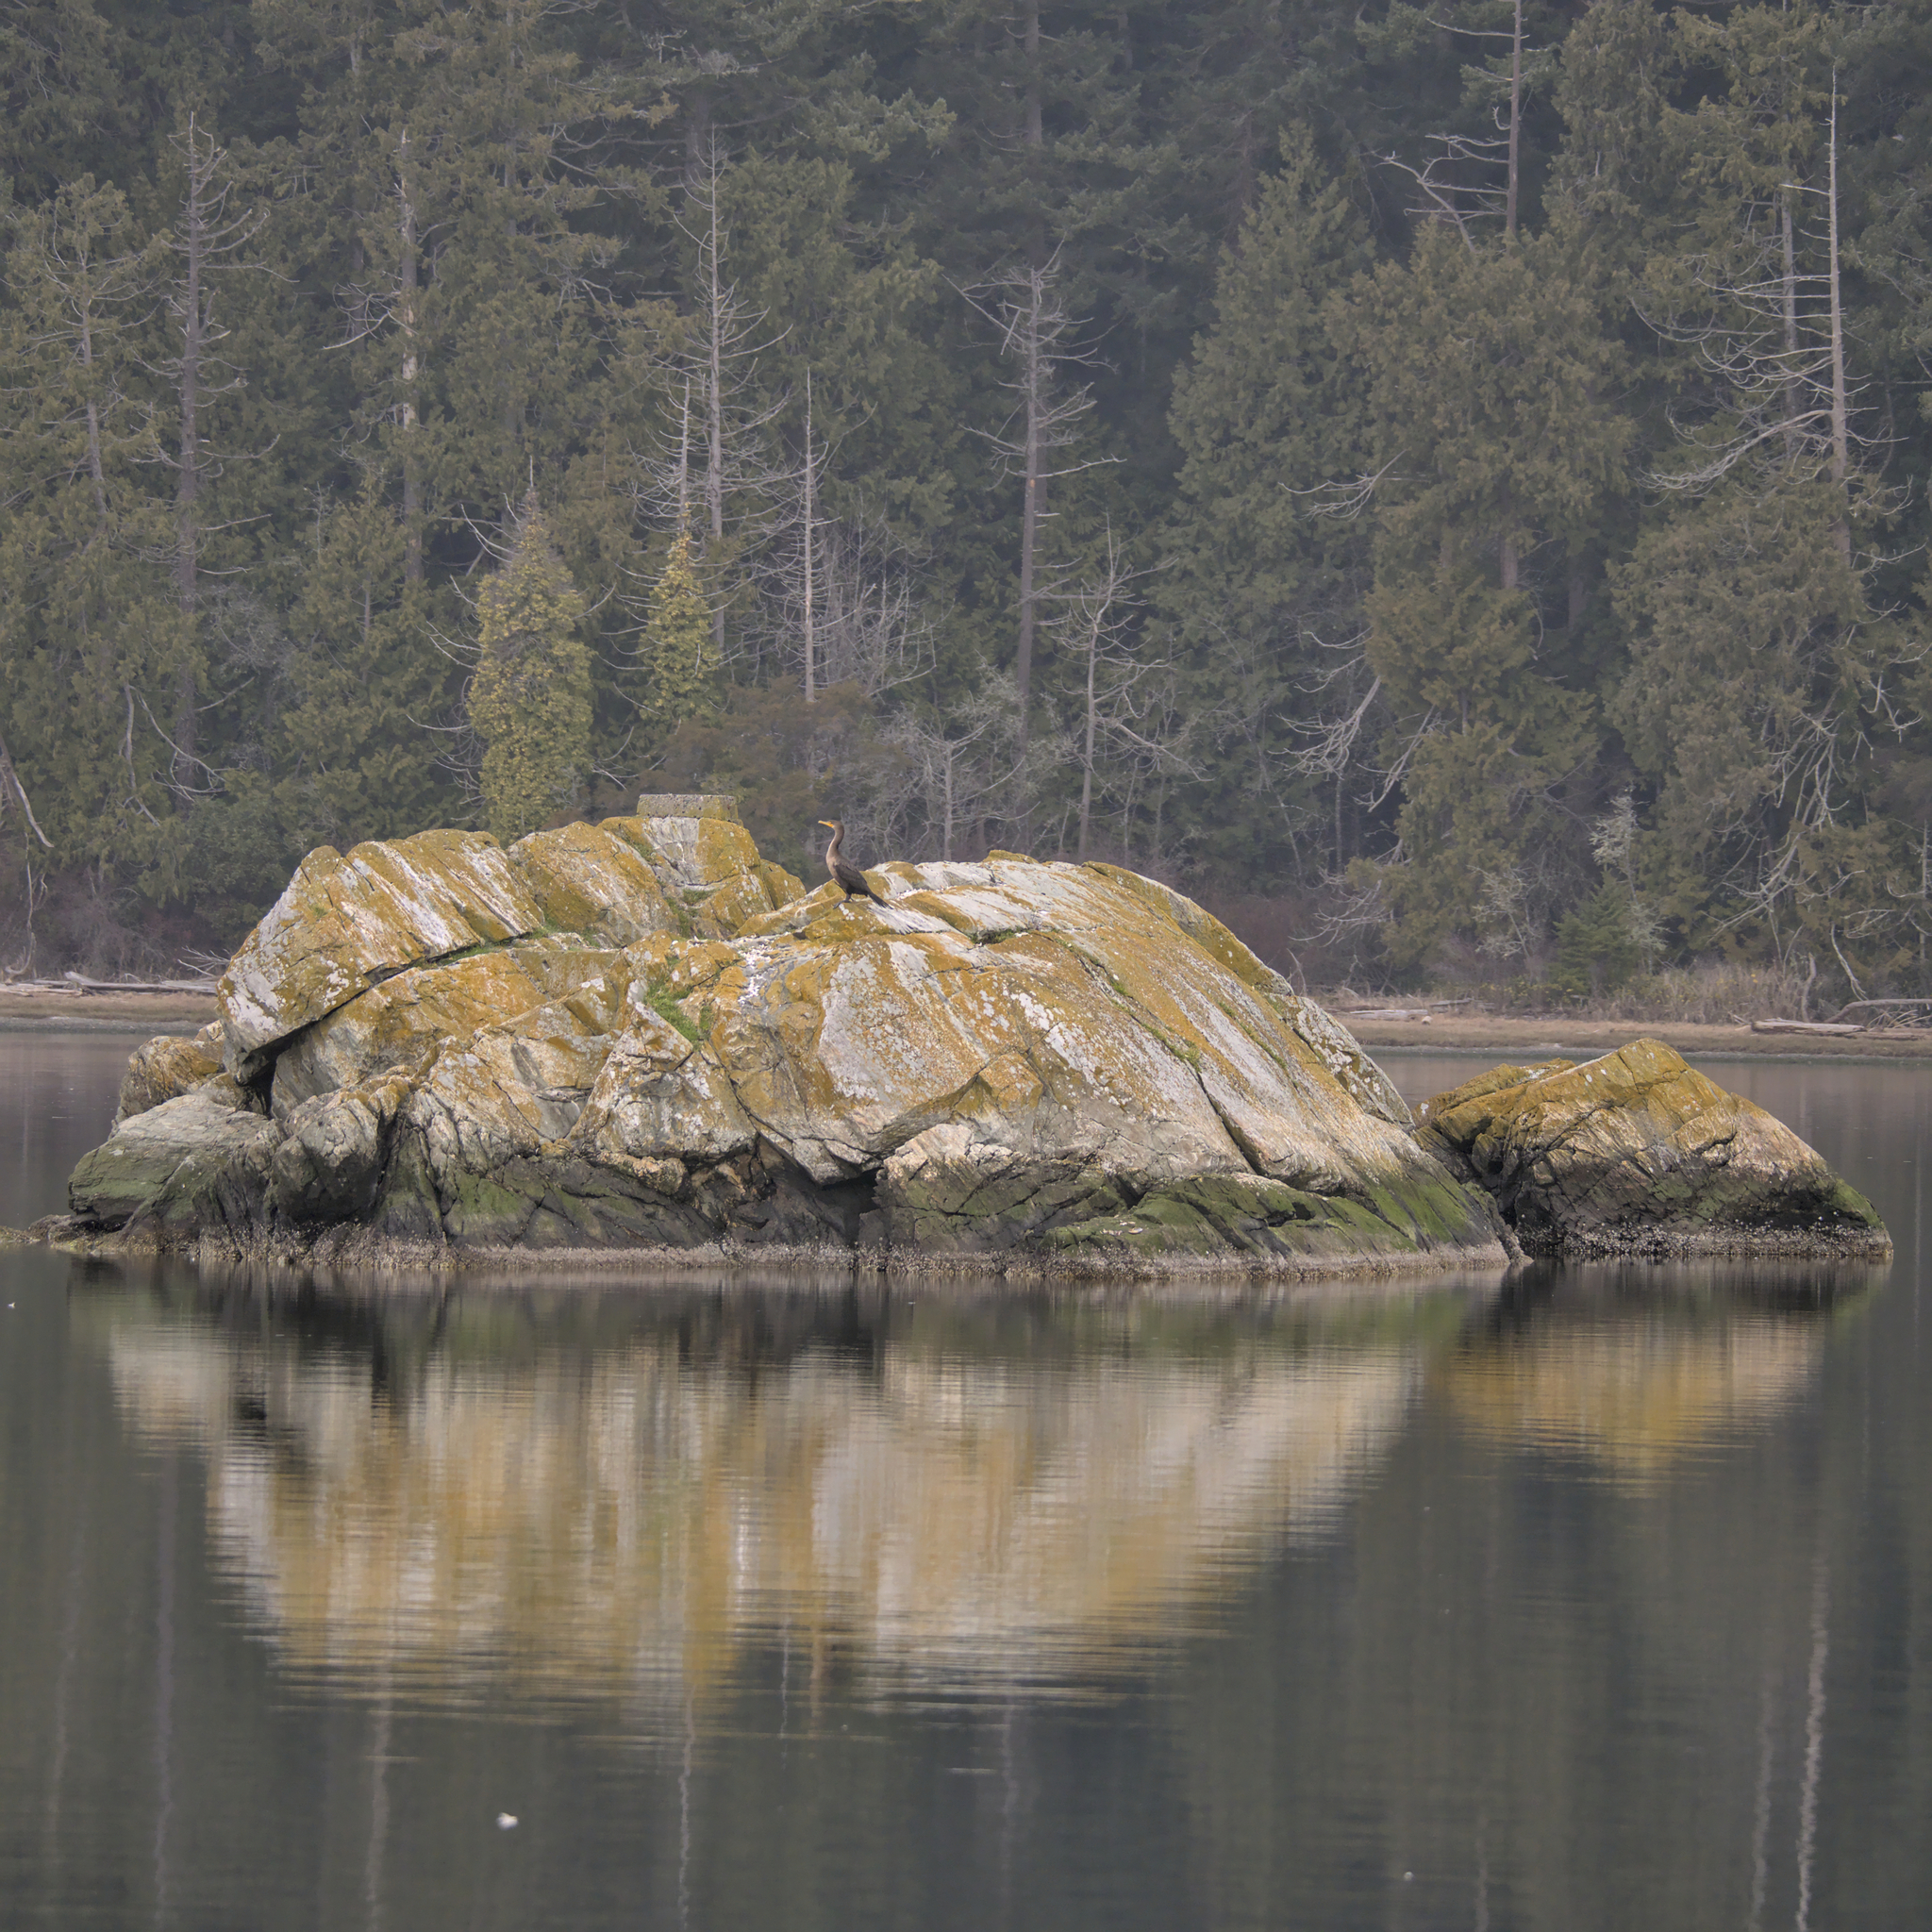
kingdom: Animalia
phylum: Chordata
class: Aves
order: Suliformes
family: Phalacrocoracidae
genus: Phalacrocorax
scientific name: Phalacrocorax auritus
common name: Double-crested cormorant
